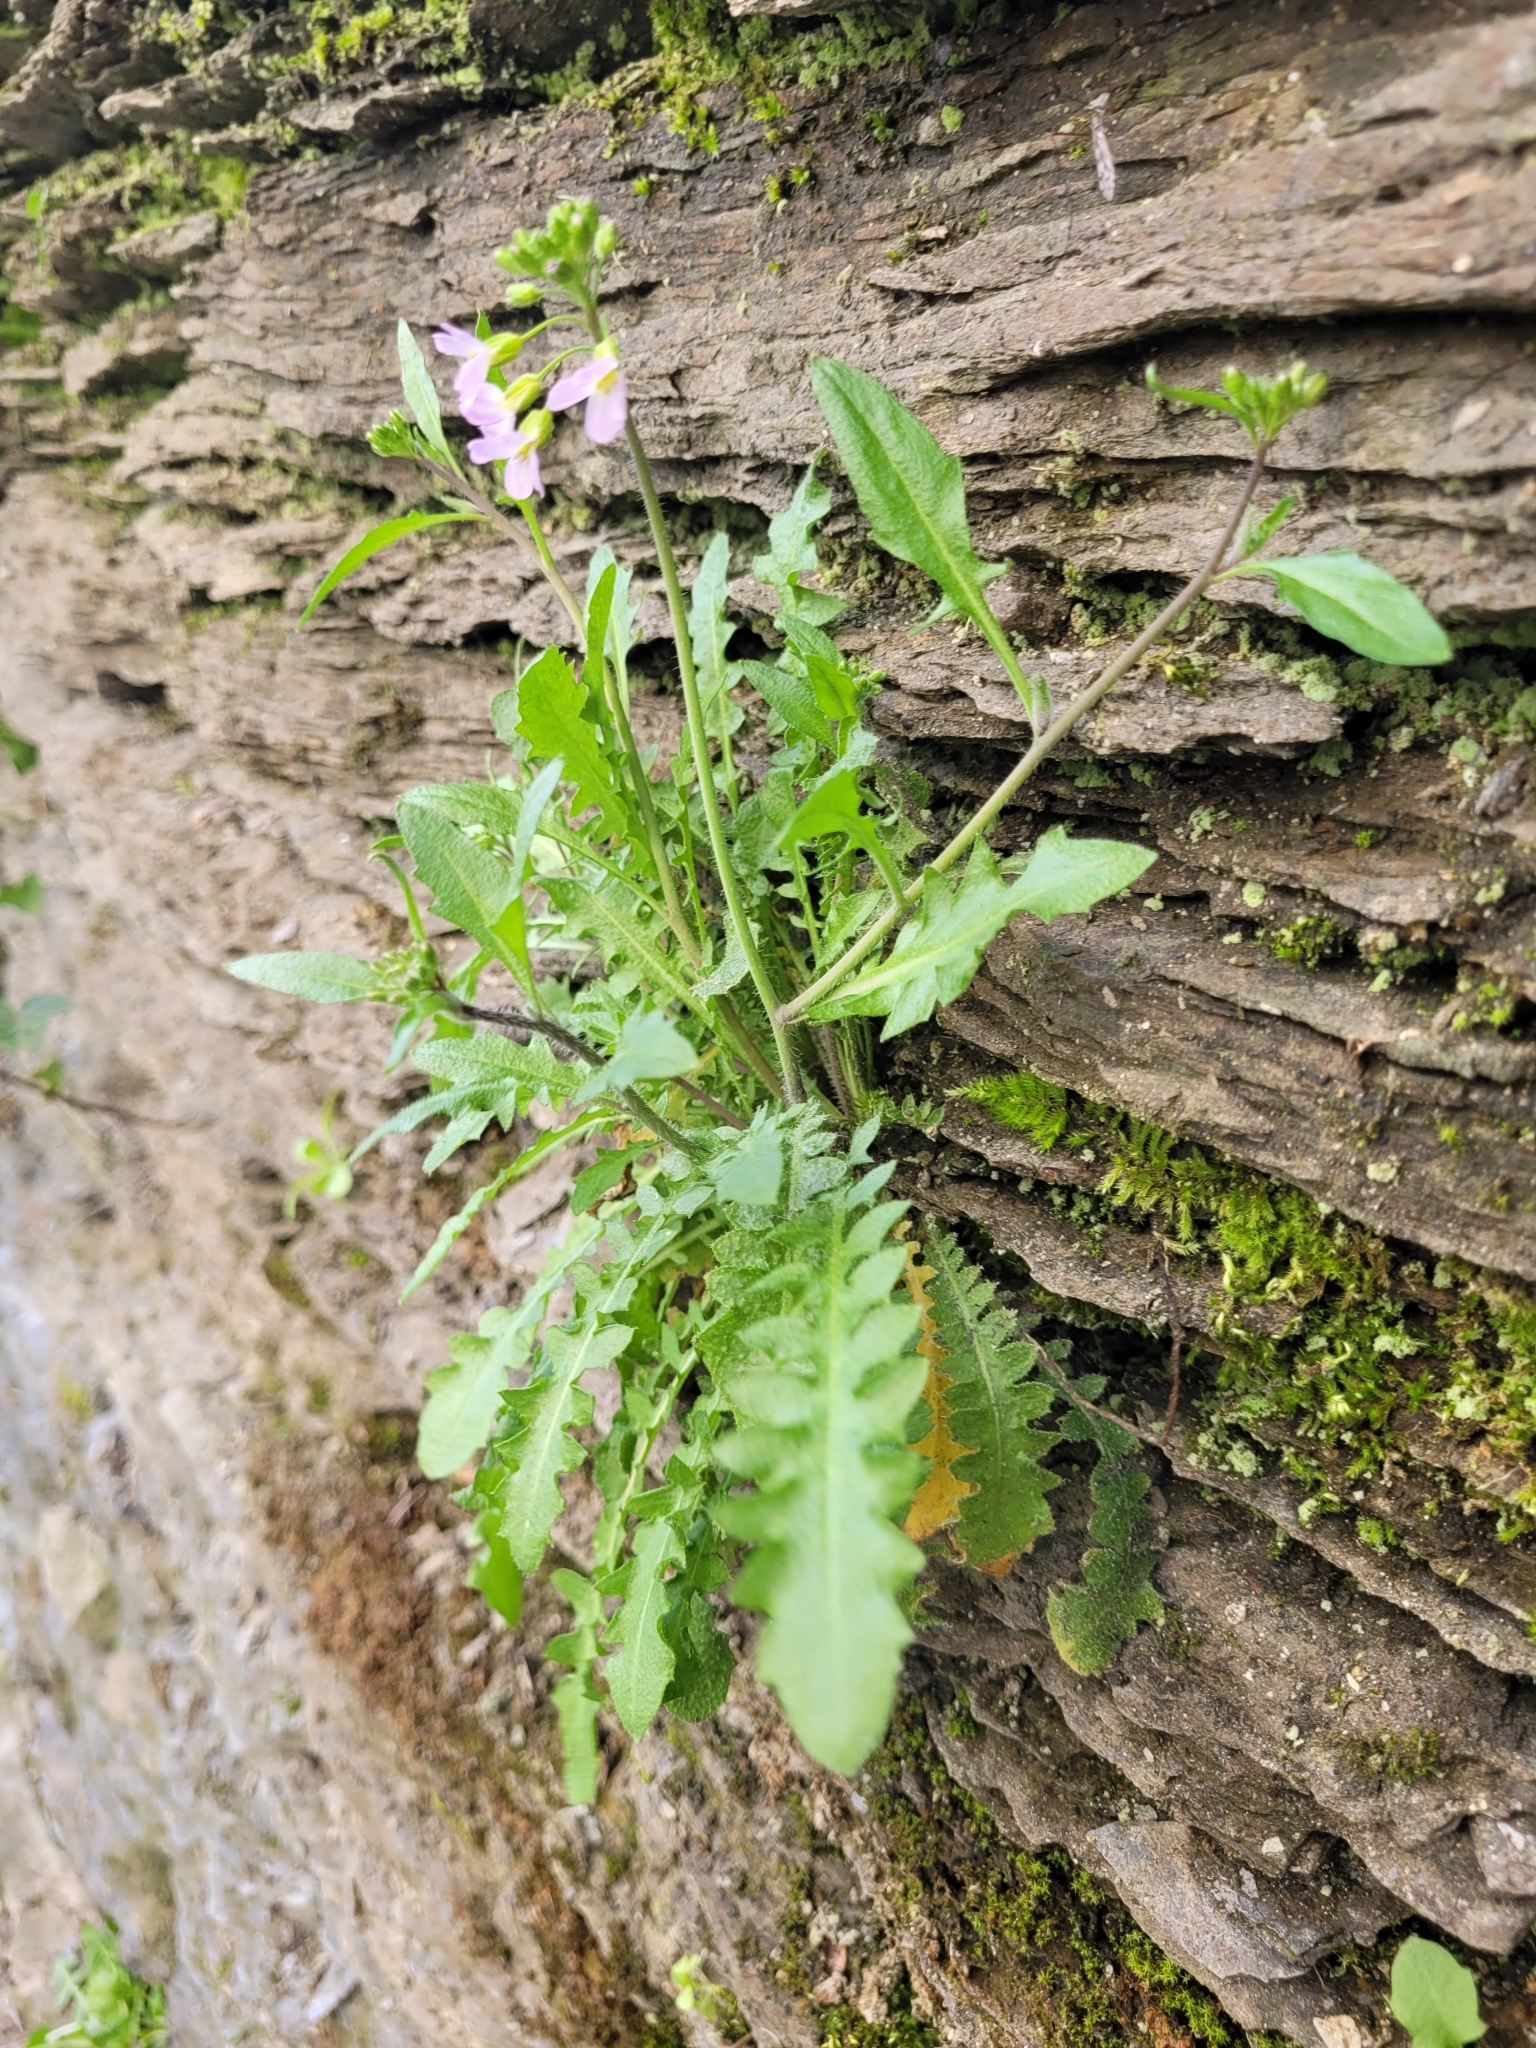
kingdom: Plantae
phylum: Tracheophyta
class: Magnoliopsida
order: Brassicales
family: Brassicaceae
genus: Arabidopsis
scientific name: Arabidopsis arenosa
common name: Sand rock-cress
